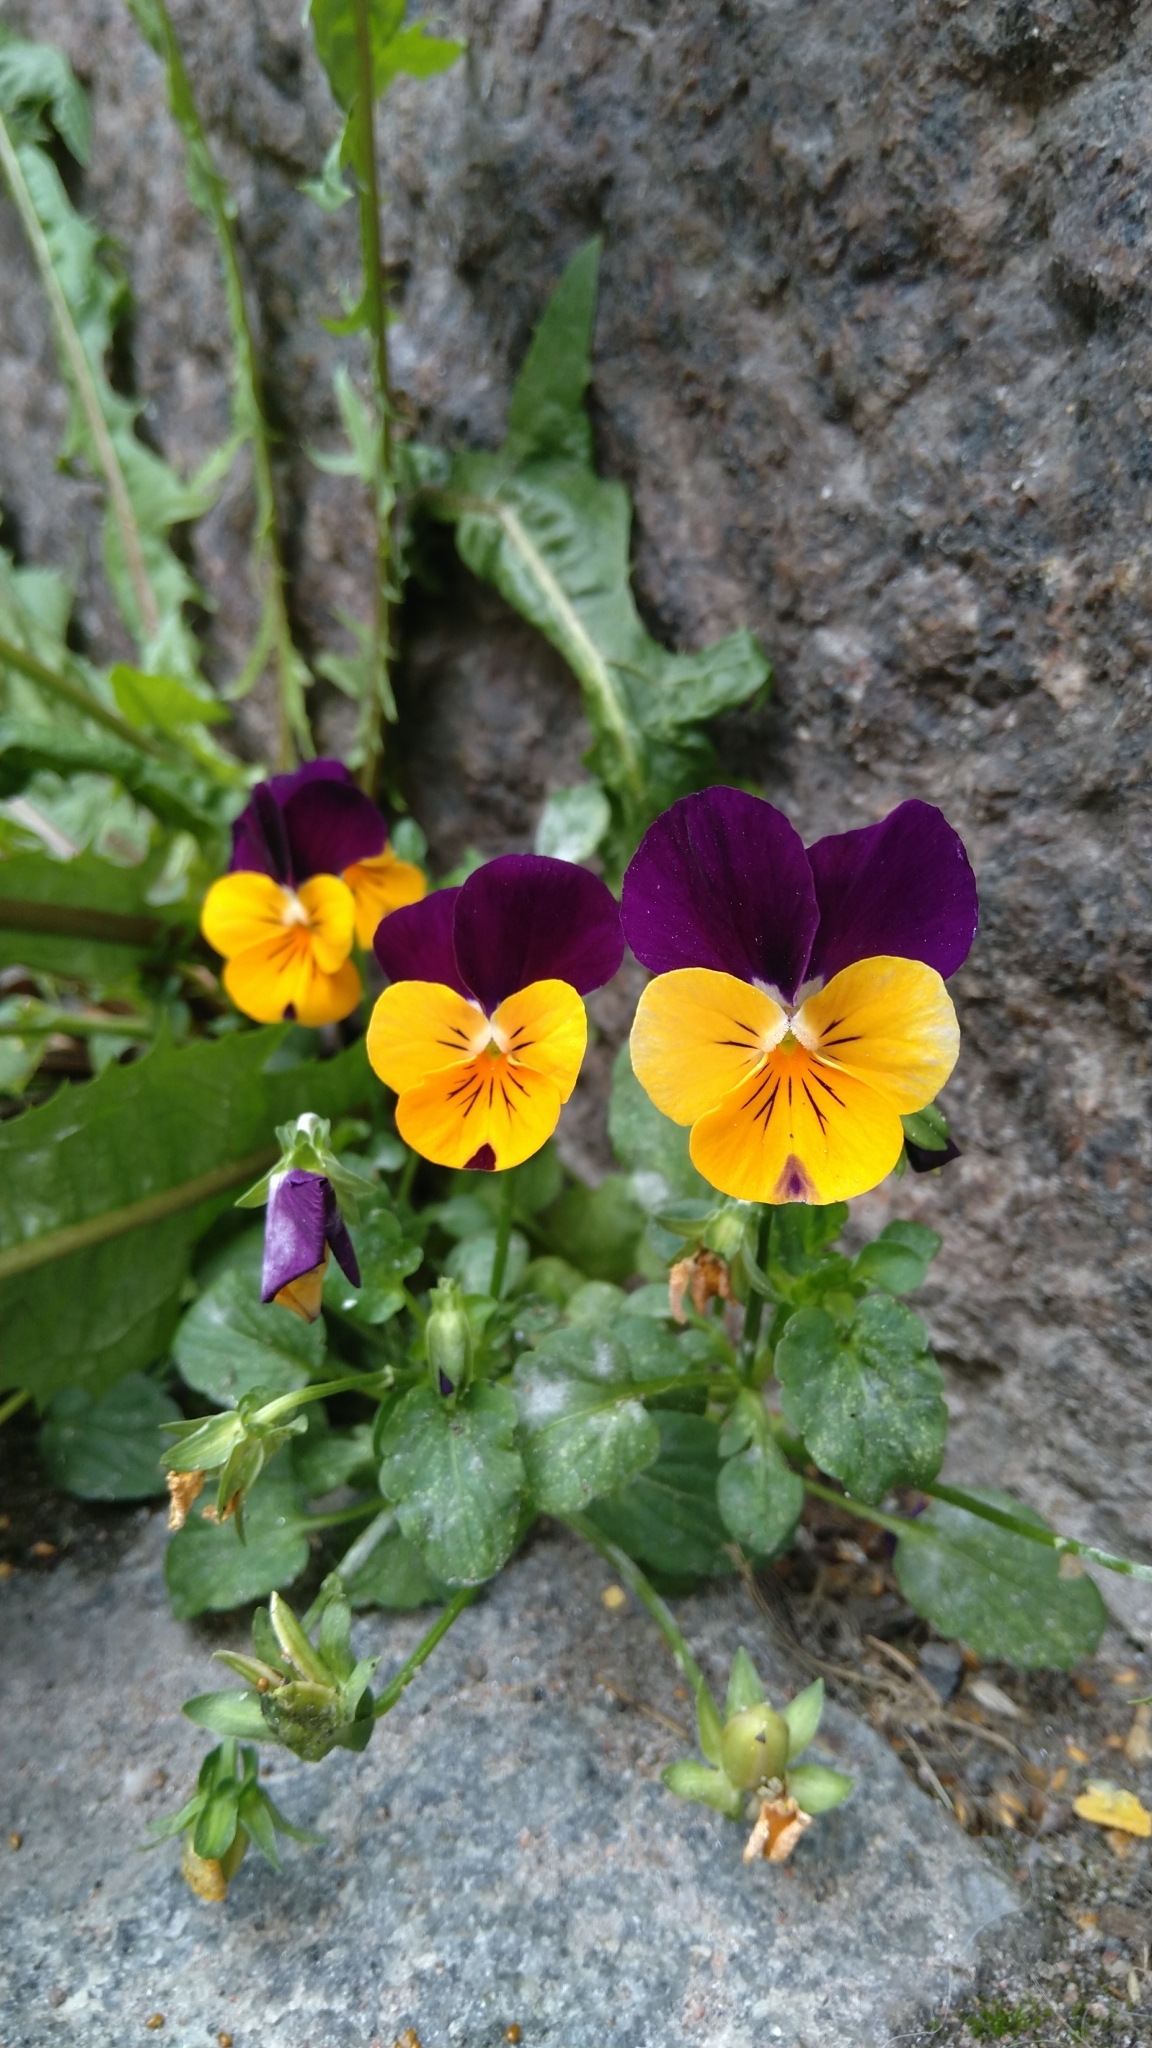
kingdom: Plantae
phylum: Tracheophyta
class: Magnoliopsida
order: Malpighiales
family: Violaceae
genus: Viola
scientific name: Viola wittrockiana
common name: Garden pansy
